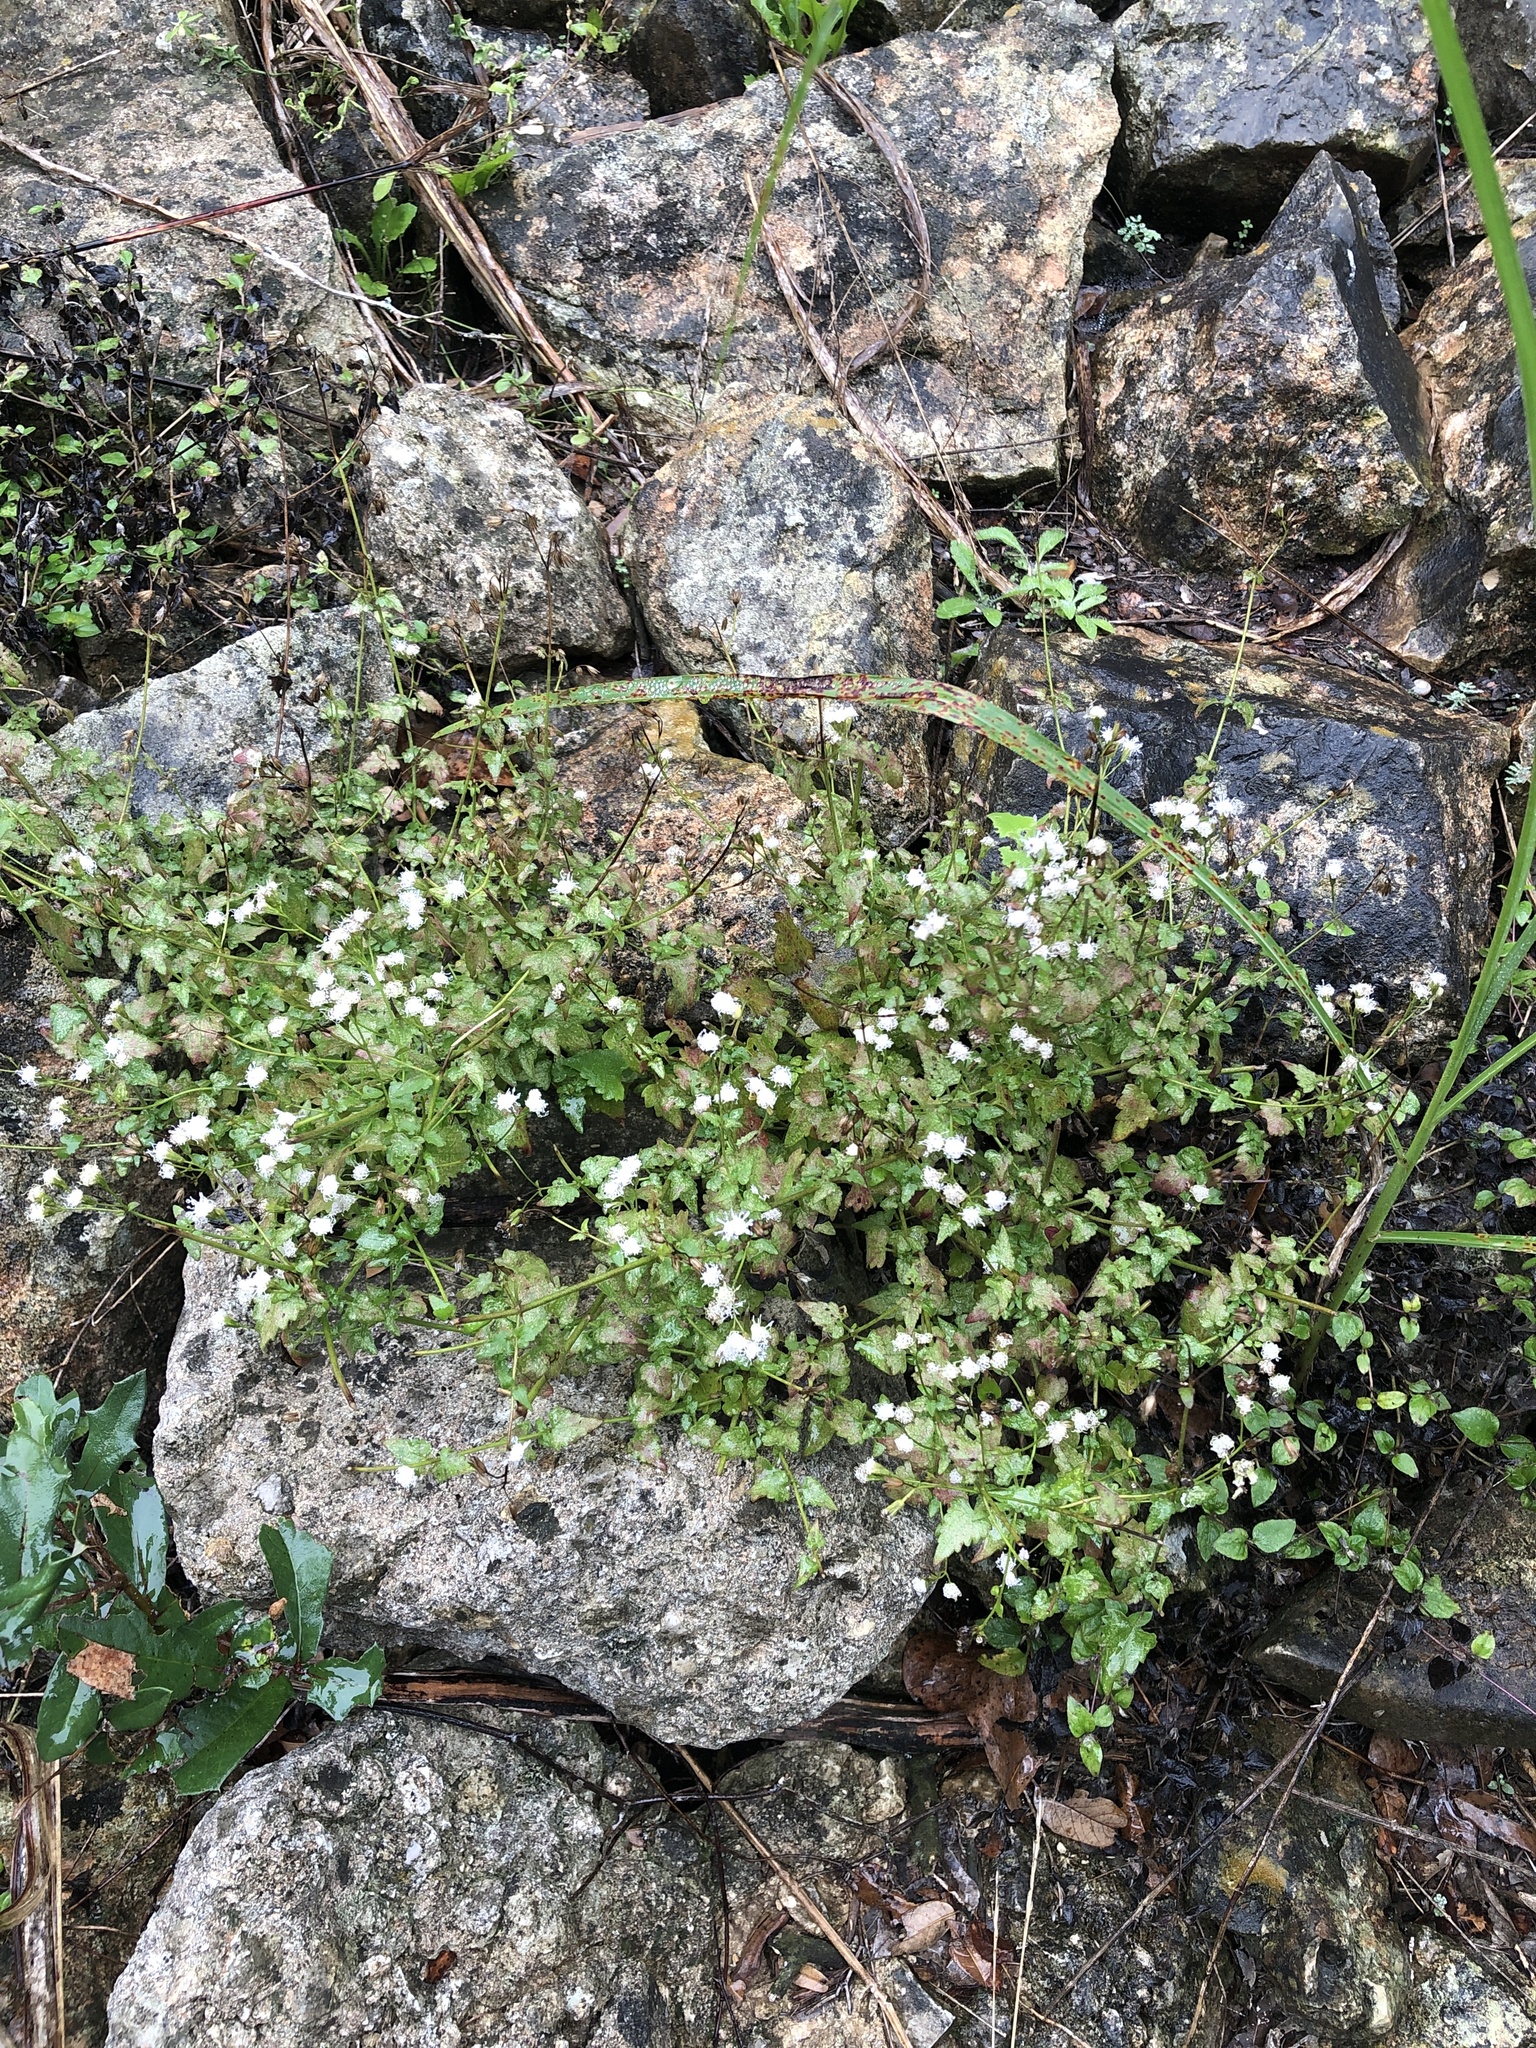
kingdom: Plantae
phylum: Tracheophyta
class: Magnoliopsida
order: Asterales
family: Asteraceae
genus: Fleischmannia
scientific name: Fleischmannia incarnata
